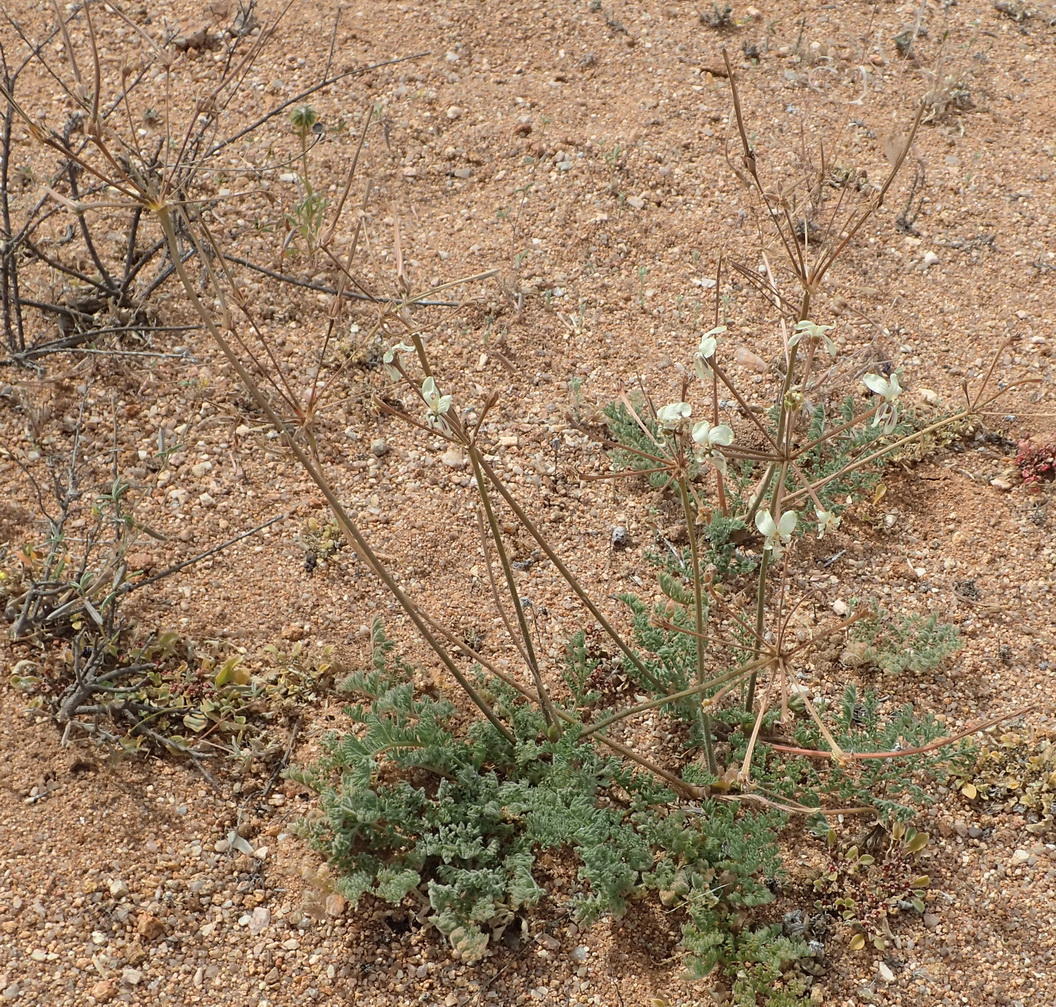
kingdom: Plantae
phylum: Tracheophyta
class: Magnoliopsida
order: Geraniales
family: Geraniaceae
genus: Pelargonium
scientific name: Pelargonium triste
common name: Night-scent pelargonium
